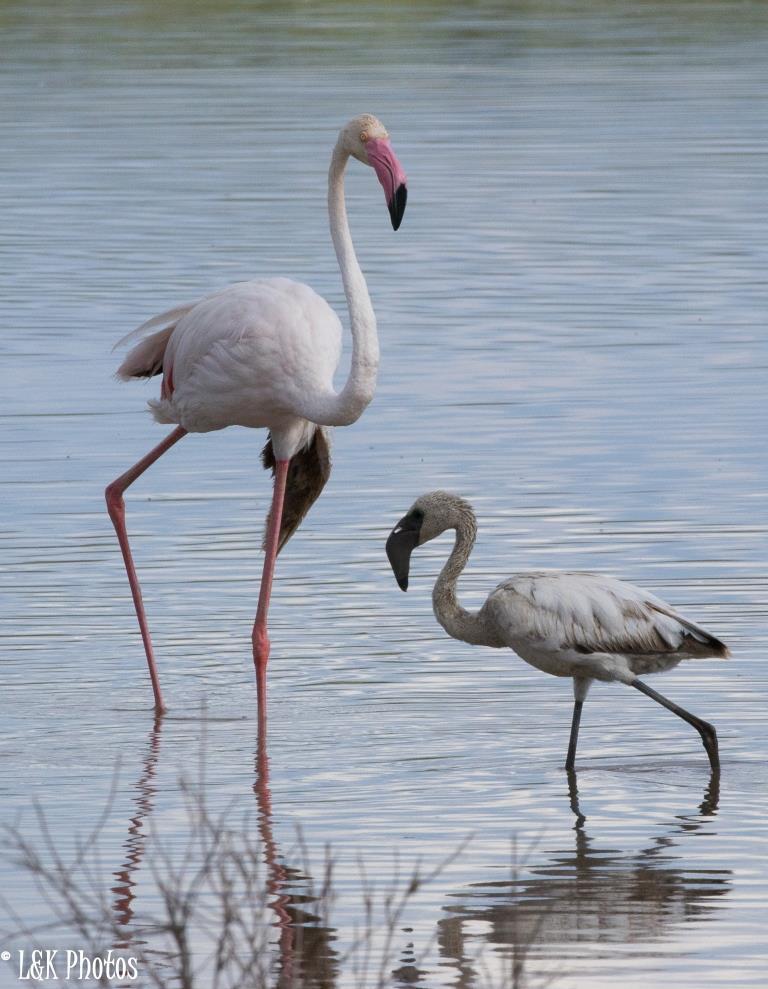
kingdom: Animalia
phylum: Chordata
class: Aves
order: Phoenicopteriformes
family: Phoenicopteridae
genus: Phoeniconaias
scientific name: Phoeniconaias minor
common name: Lesser flamingo
